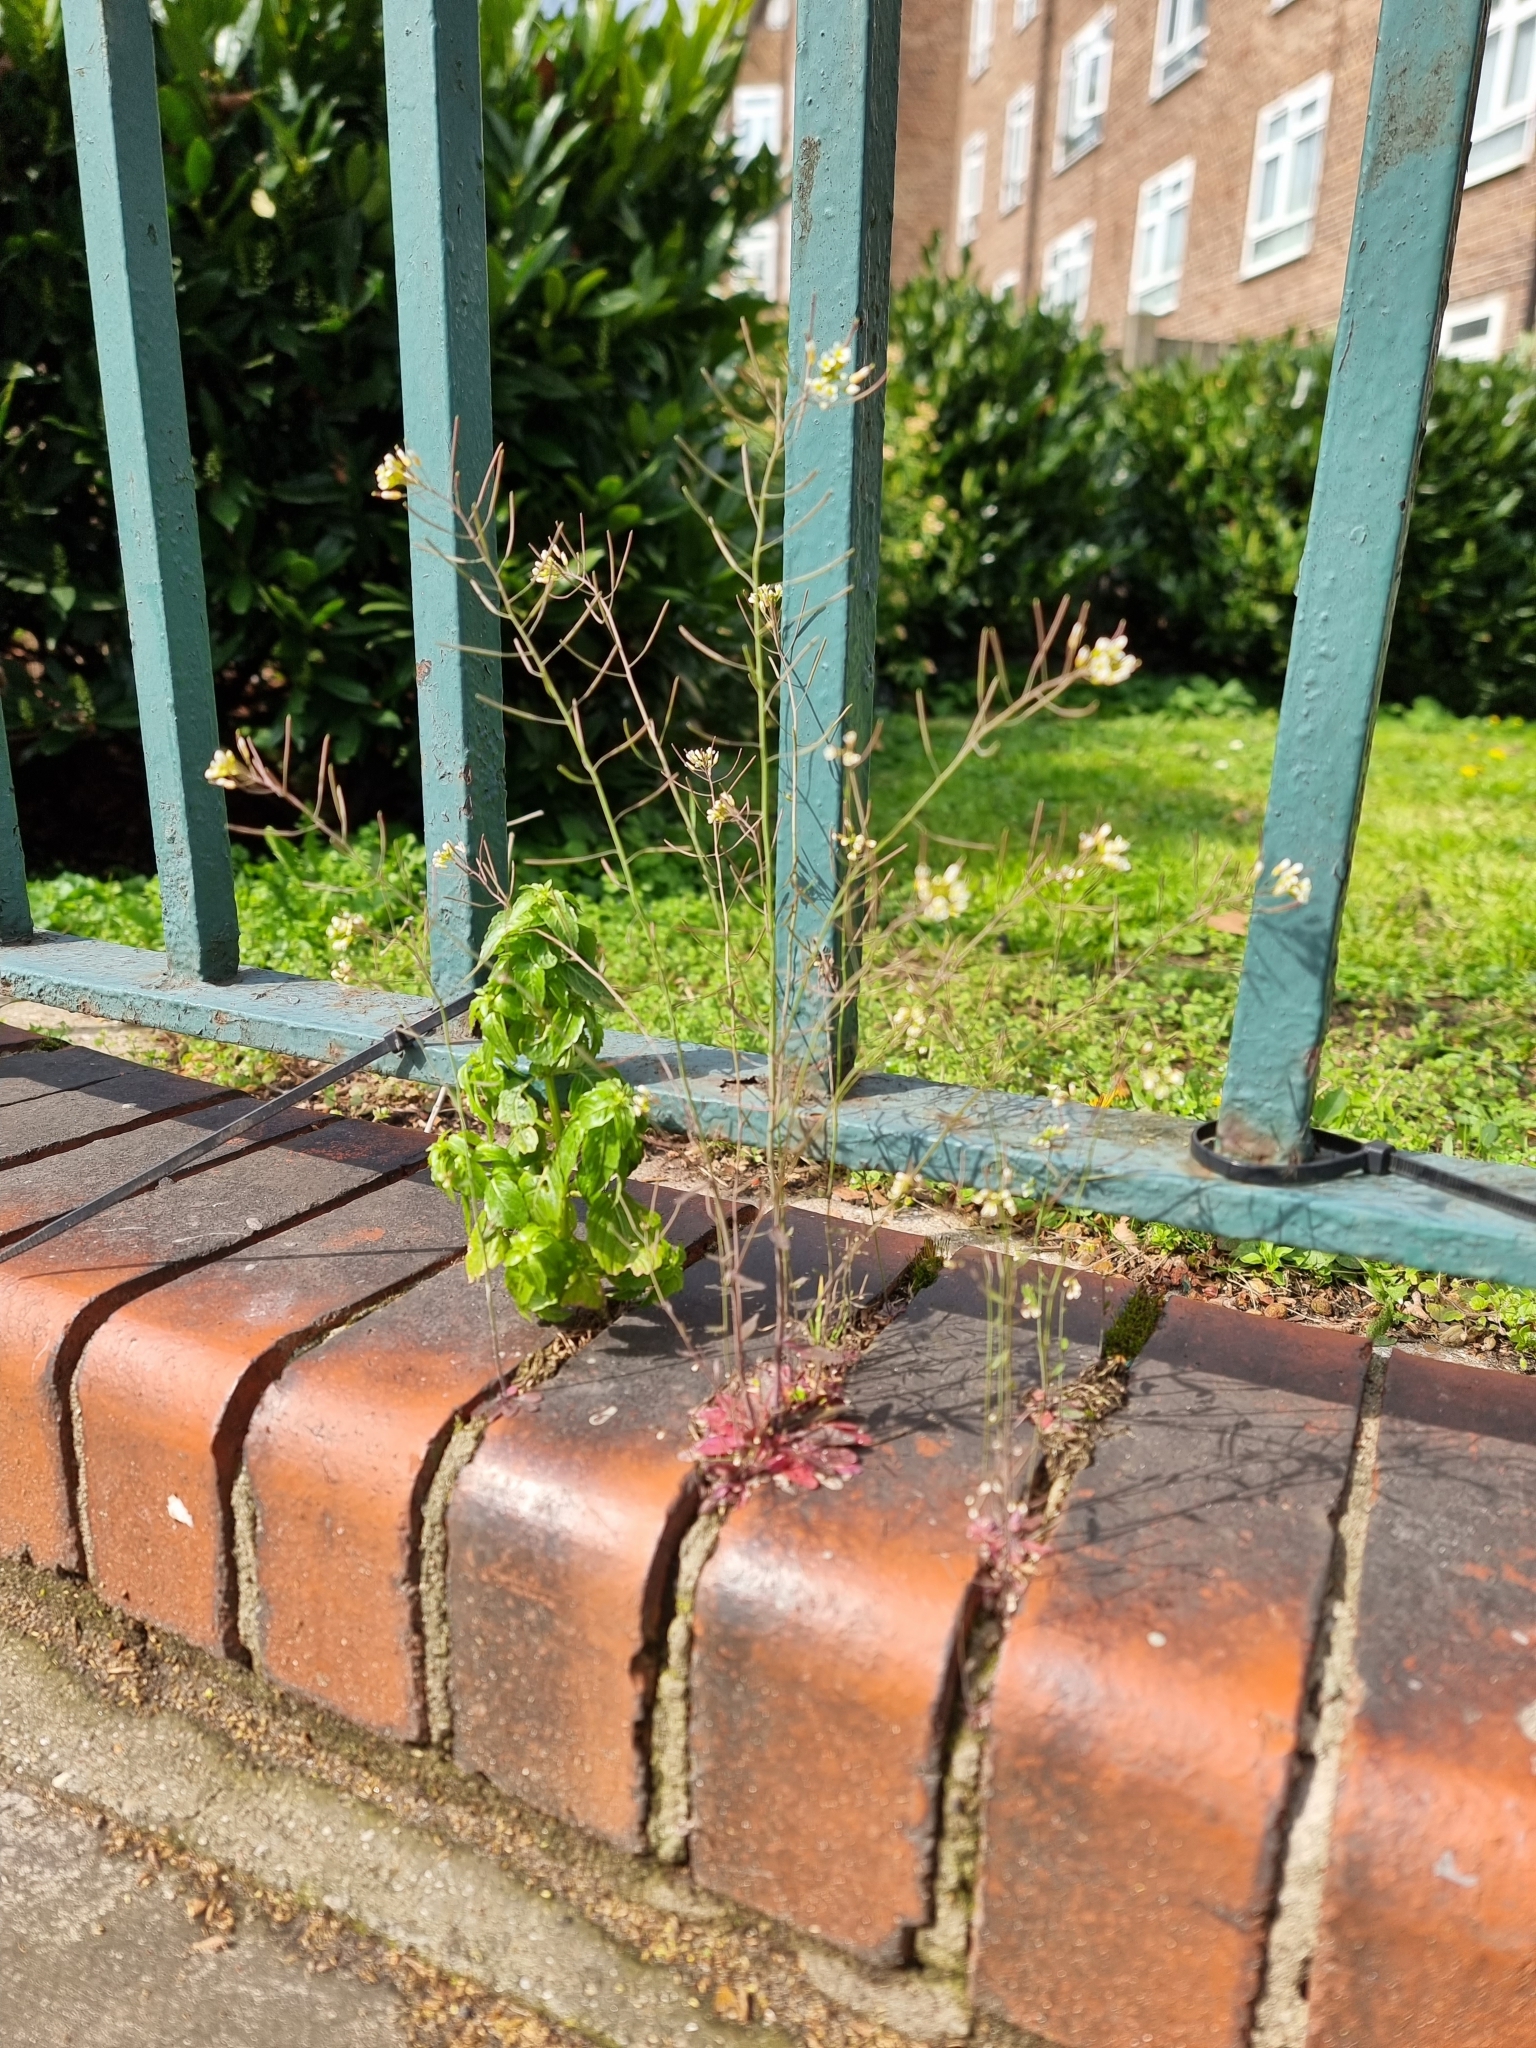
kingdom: Plantae
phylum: Tracheophyta
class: Magnoliopsida
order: Brassicales
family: Brassicaceae
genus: Arabidopsis
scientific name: Arabidopsis thaliana
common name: Thale cress
